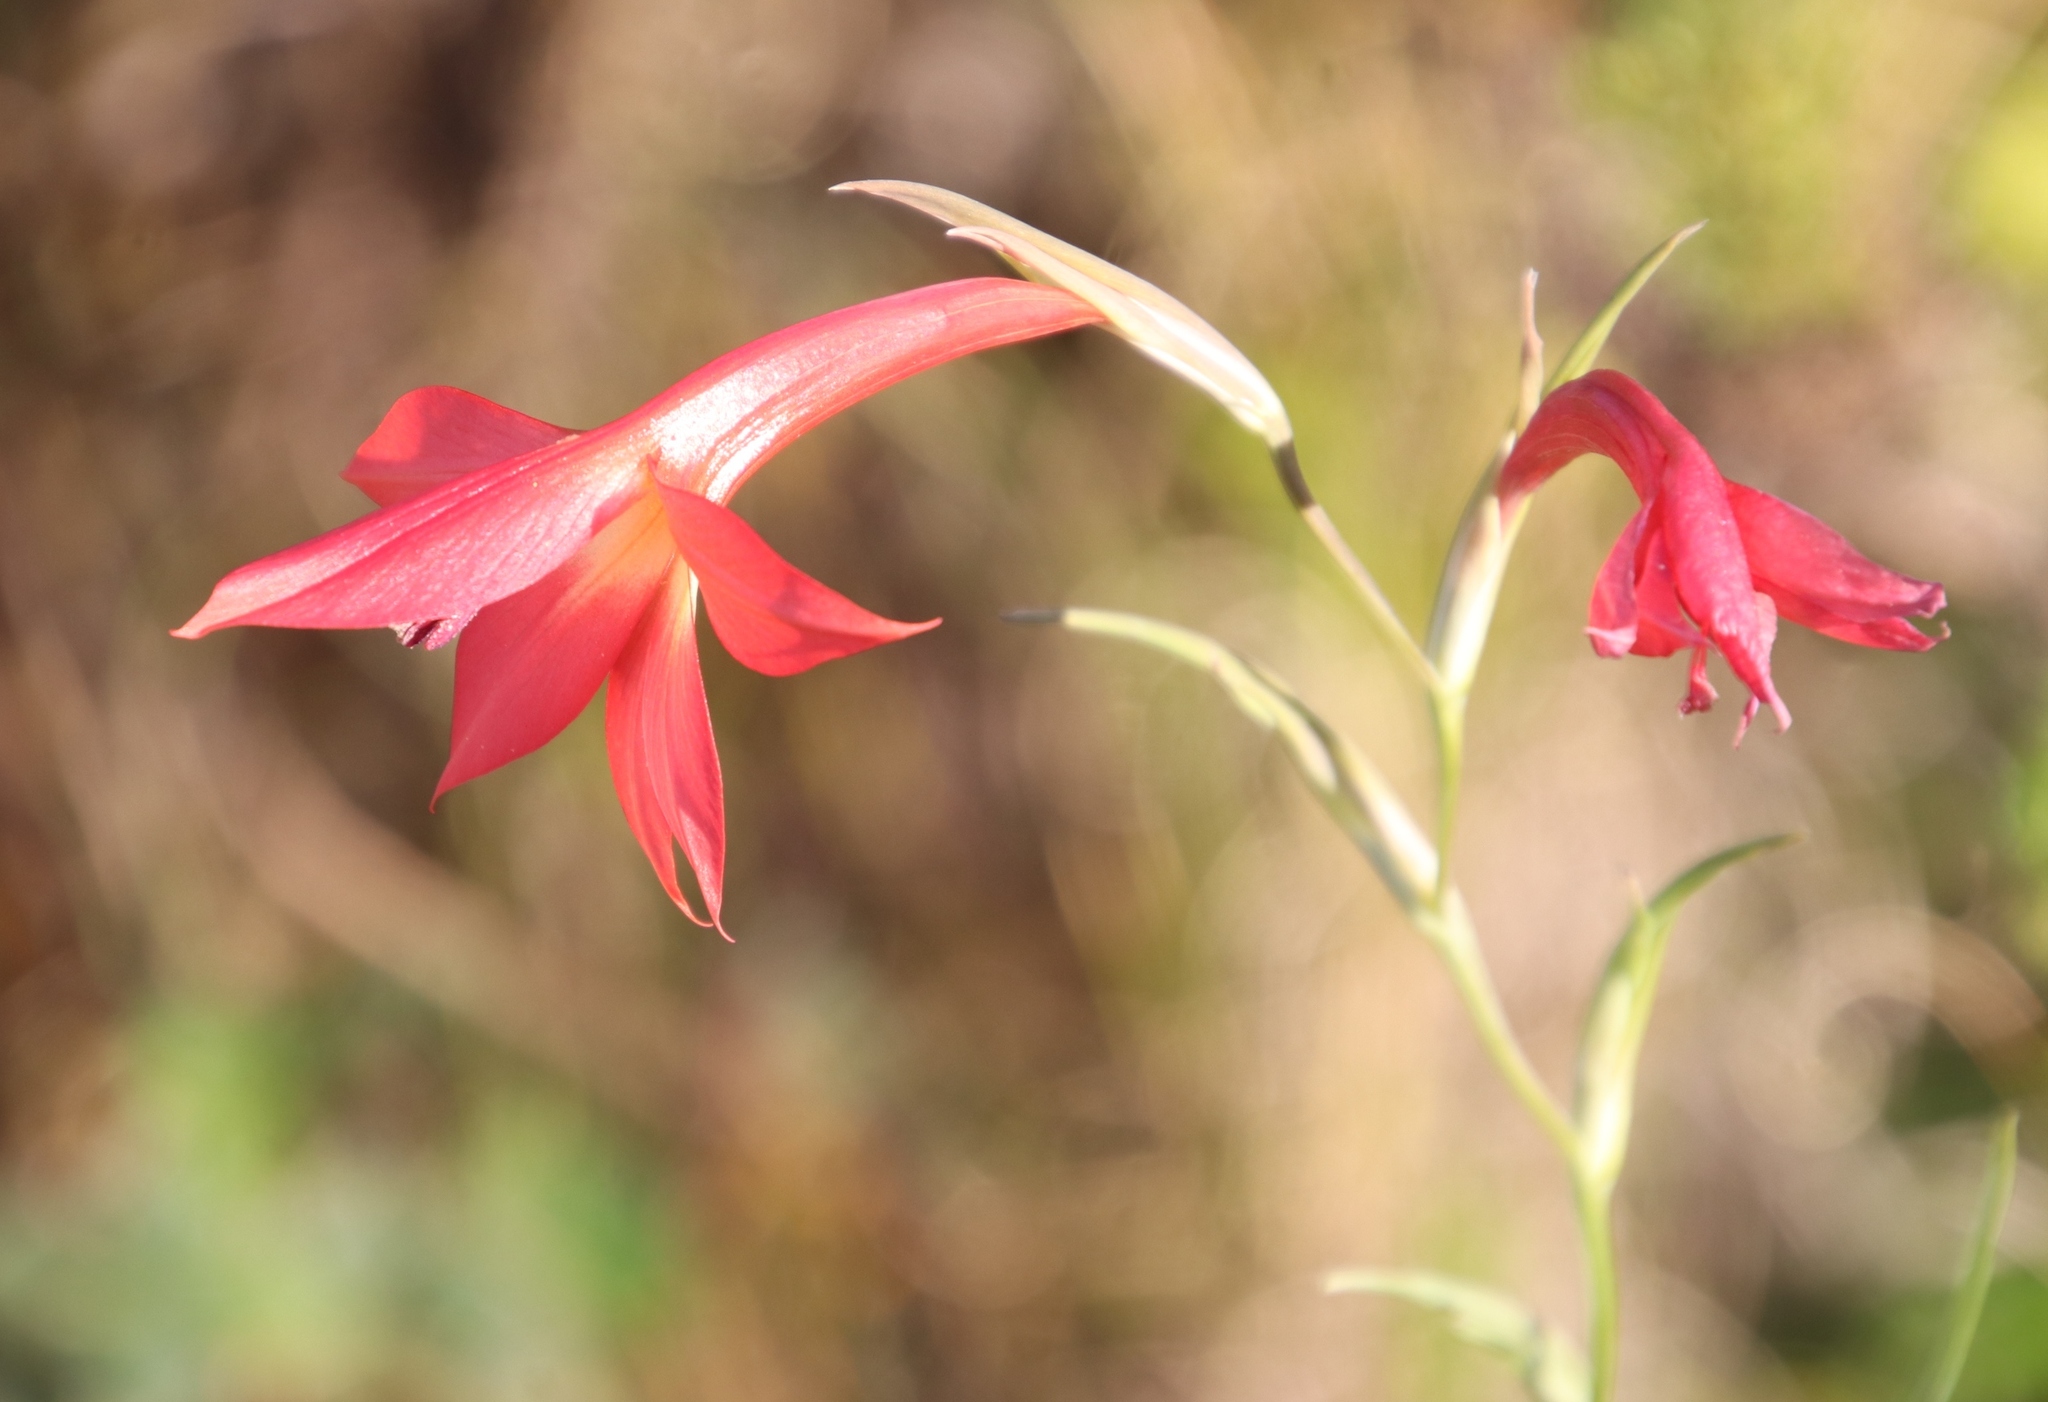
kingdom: Plantae
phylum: Tracheophyta
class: Liliopsida
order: Asparagales
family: Iridaceae
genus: Gladiolus
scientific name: Gladiolus priorii
